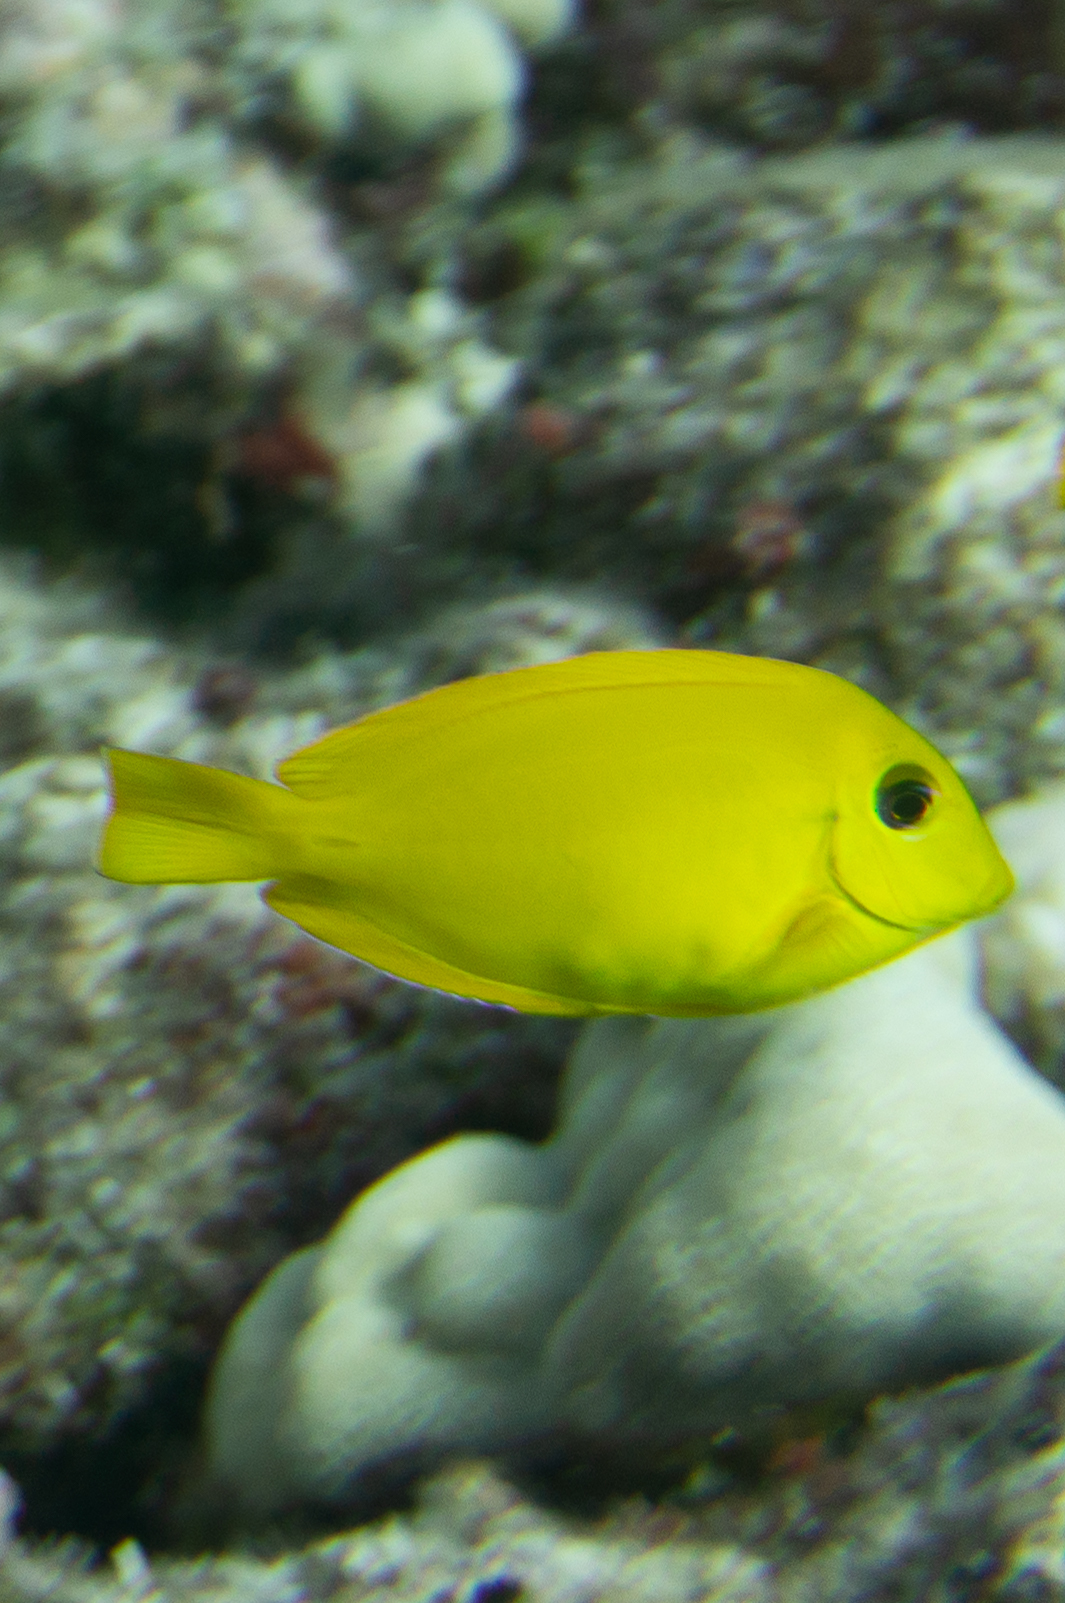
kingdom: Animalia
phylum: Chordata
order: Perciformes
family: Acanthuridae
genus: Acanthurus
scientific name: Acanthurus olivaceus
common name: Gendarme fish
